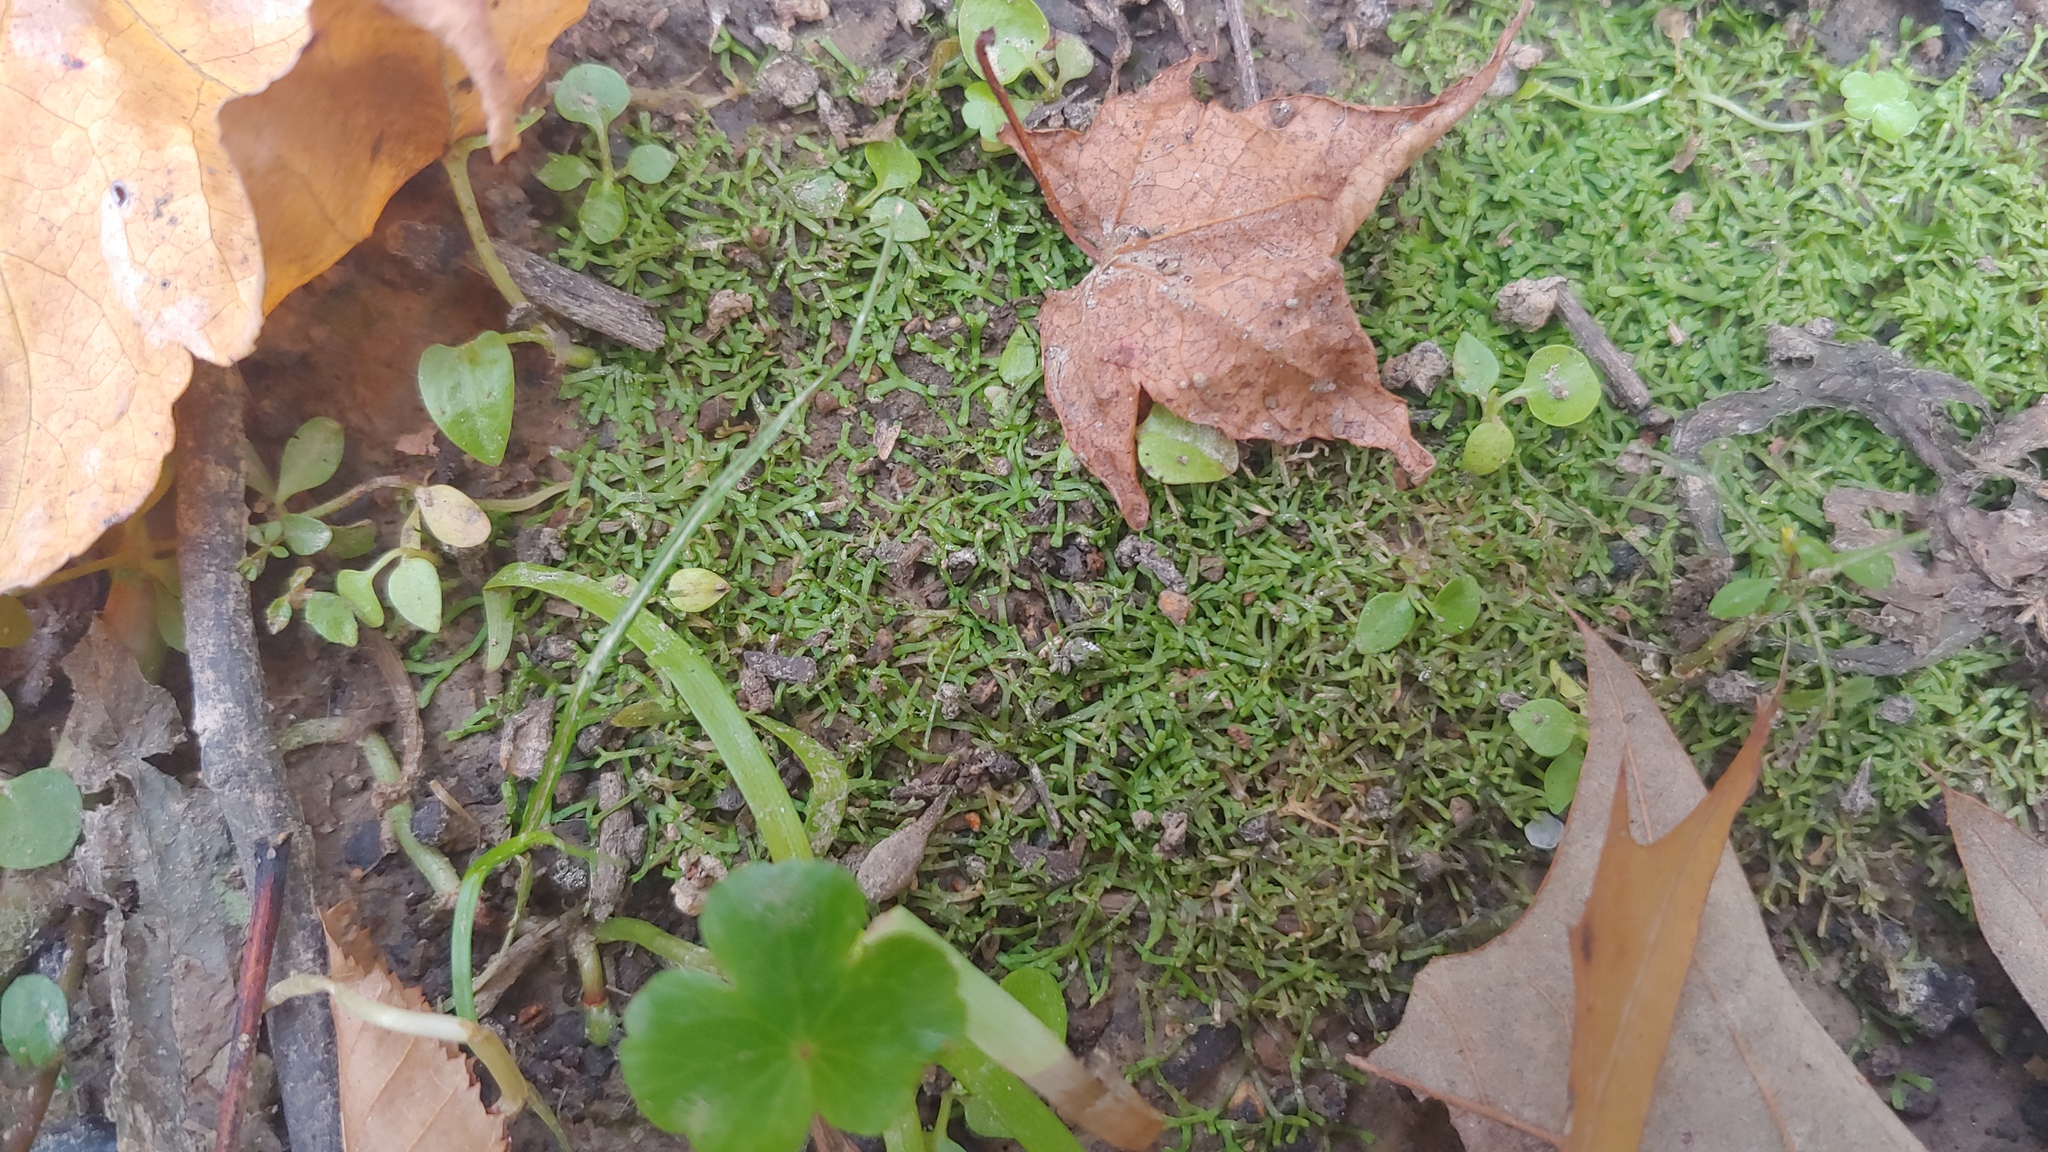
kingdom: Plantae
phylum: Marchantiophyta
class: Marchantiopsida
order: Marchantiales
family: Ricciaceae
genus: Riccia
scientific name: Riccia fluitans
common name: Floating crystalwort
